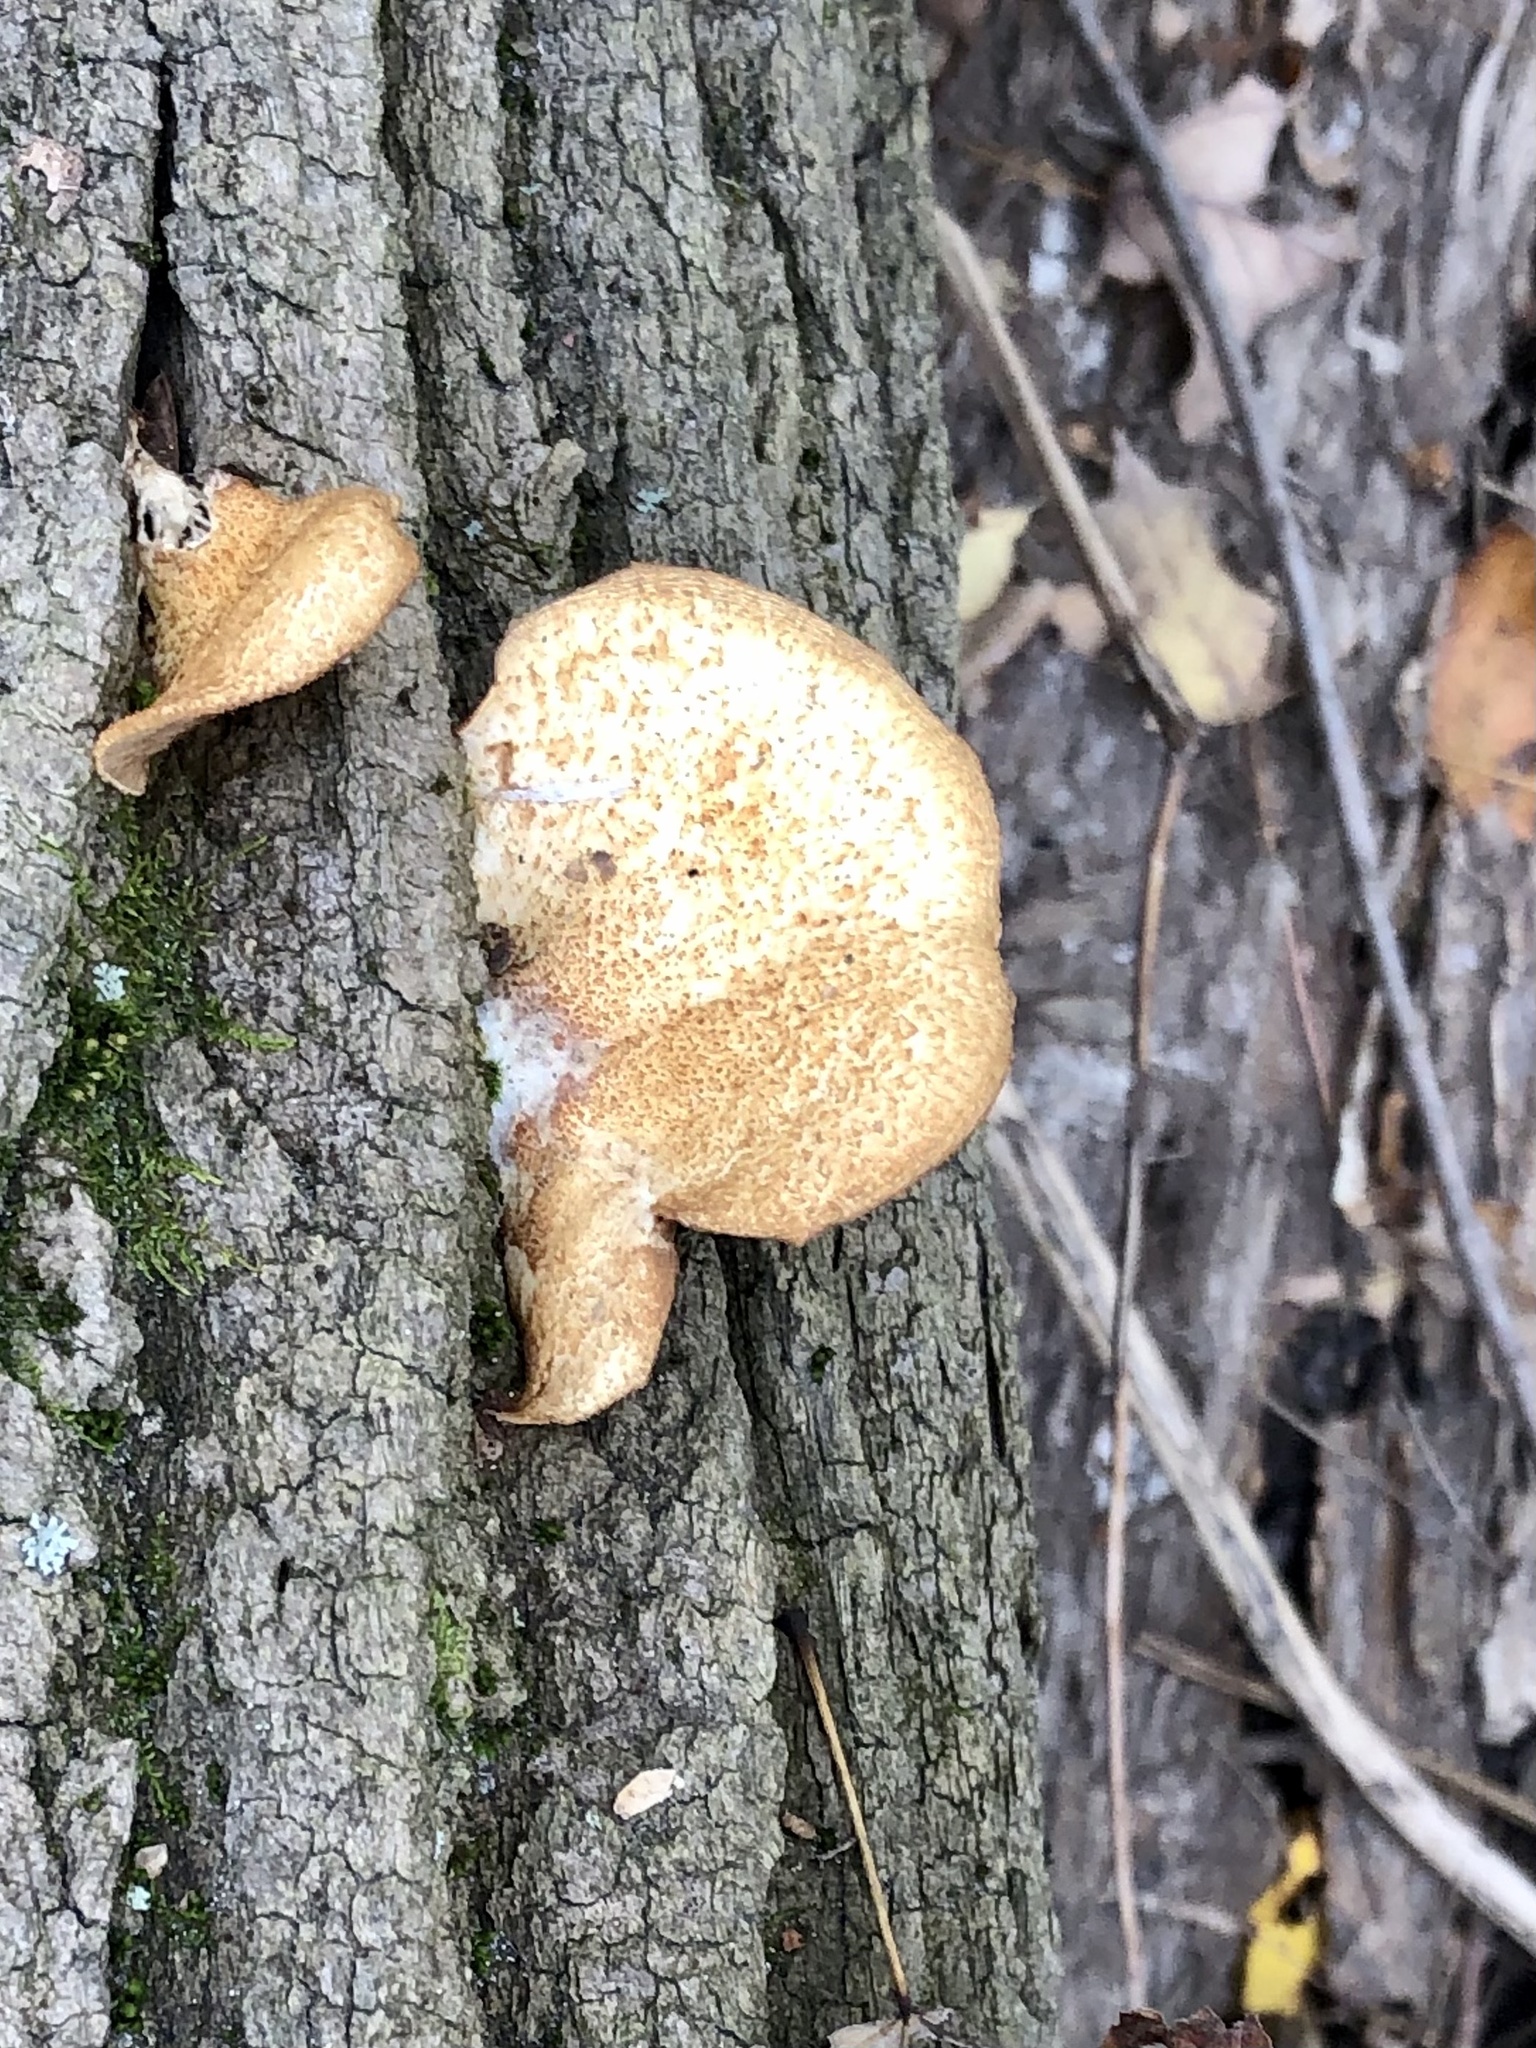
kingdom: Fungi
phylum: Basidiomycota
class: Agaricomycetes
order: Polyporales
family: Polyporaceae
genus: Neofavolus
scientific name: Neofavolus alveolaris
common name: Hexagonal-pored polypore
